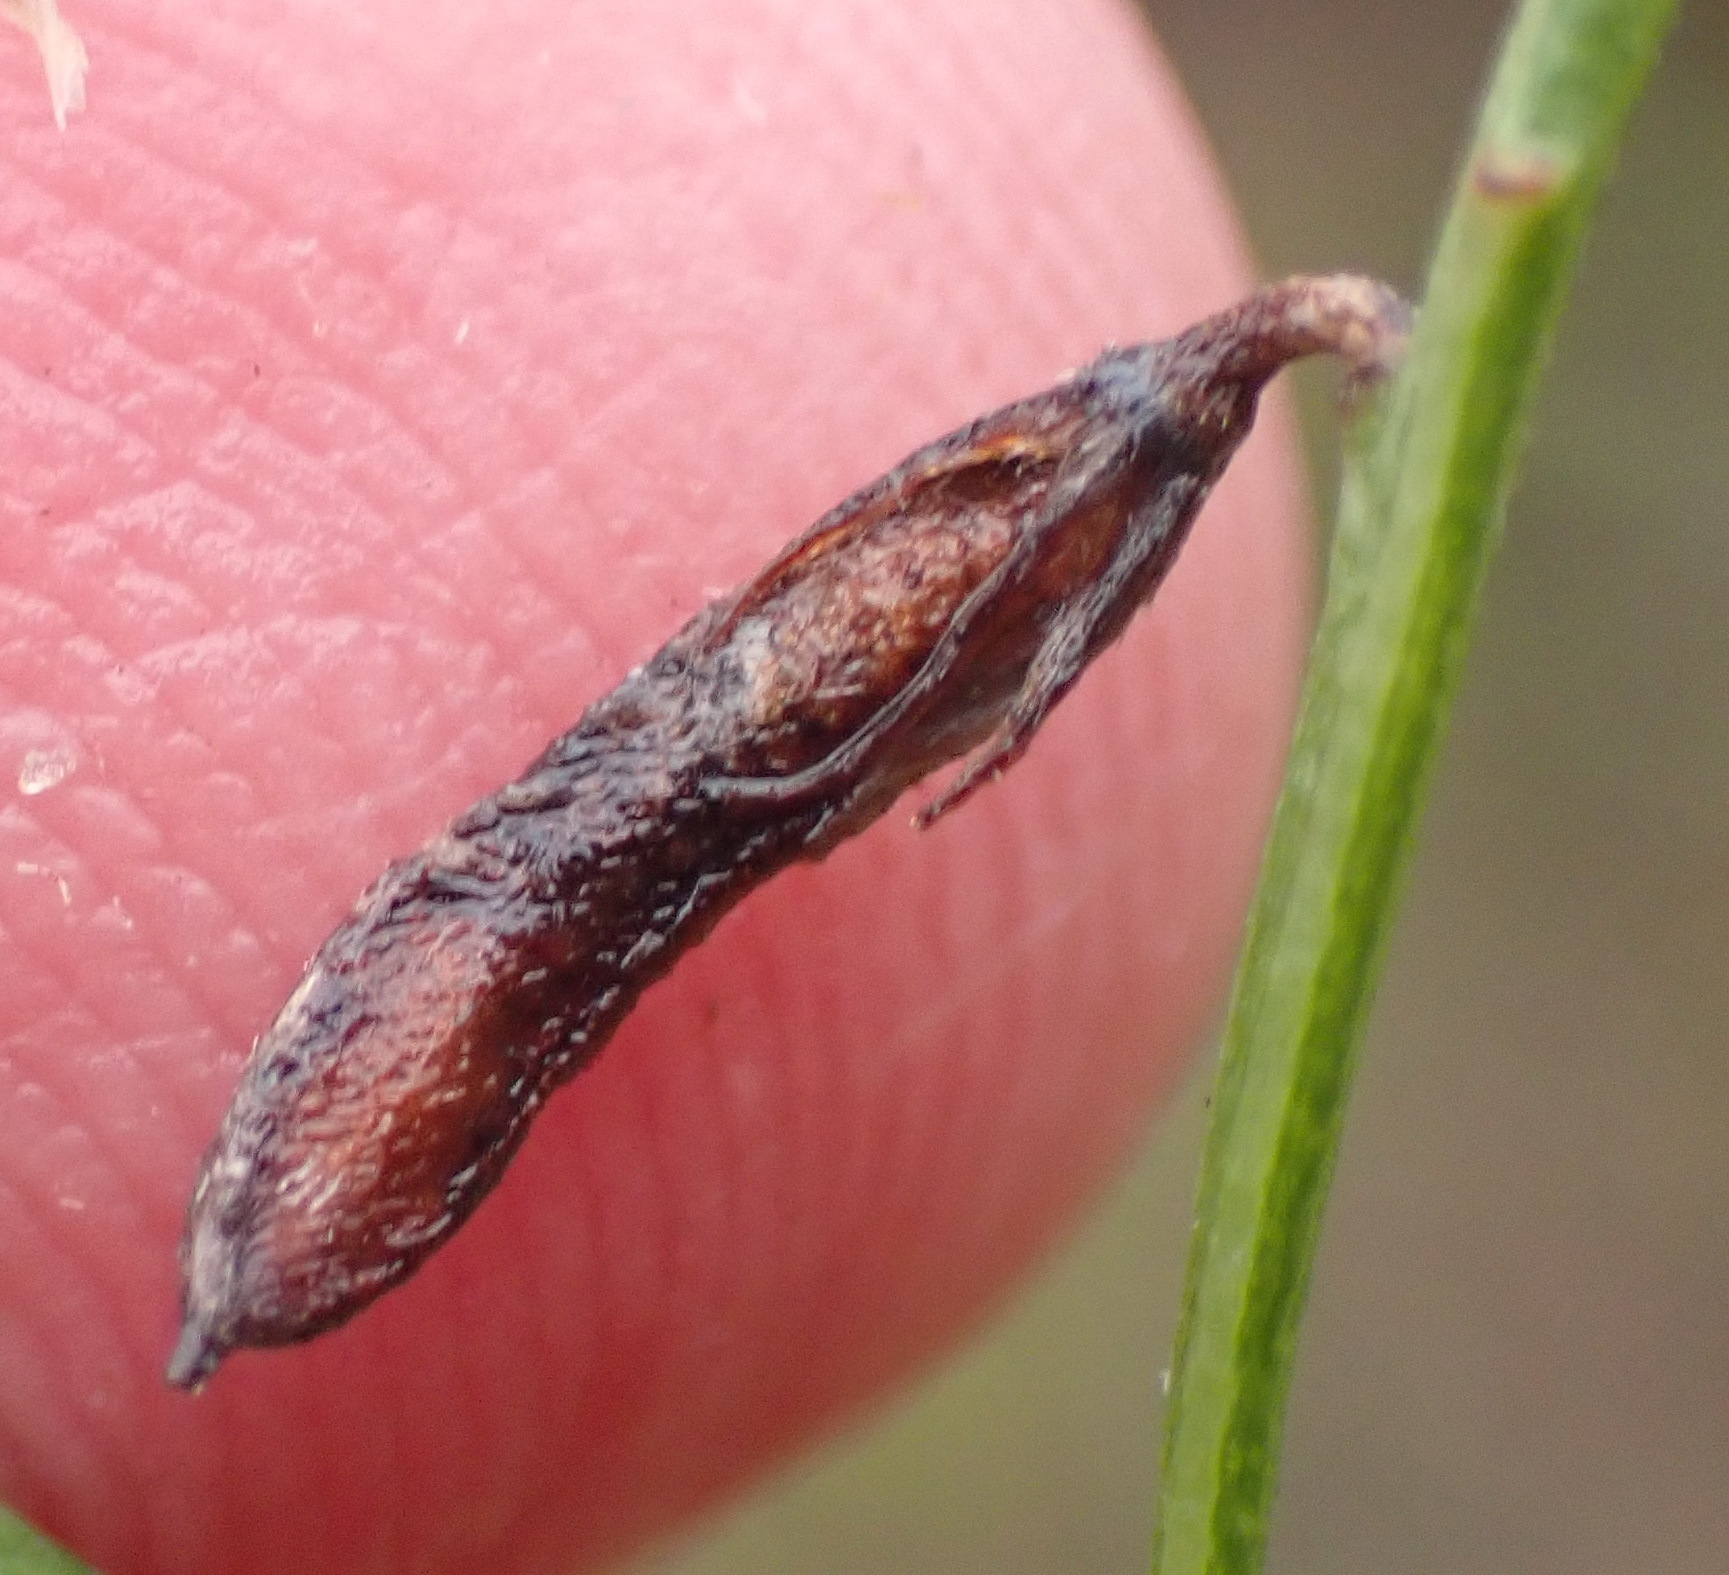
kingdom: Plantae
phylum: Tracheophyta
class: Magnoliopsida
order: Fabales
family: Fabaceae
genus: Indigofera
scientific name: Indigofera priorii
